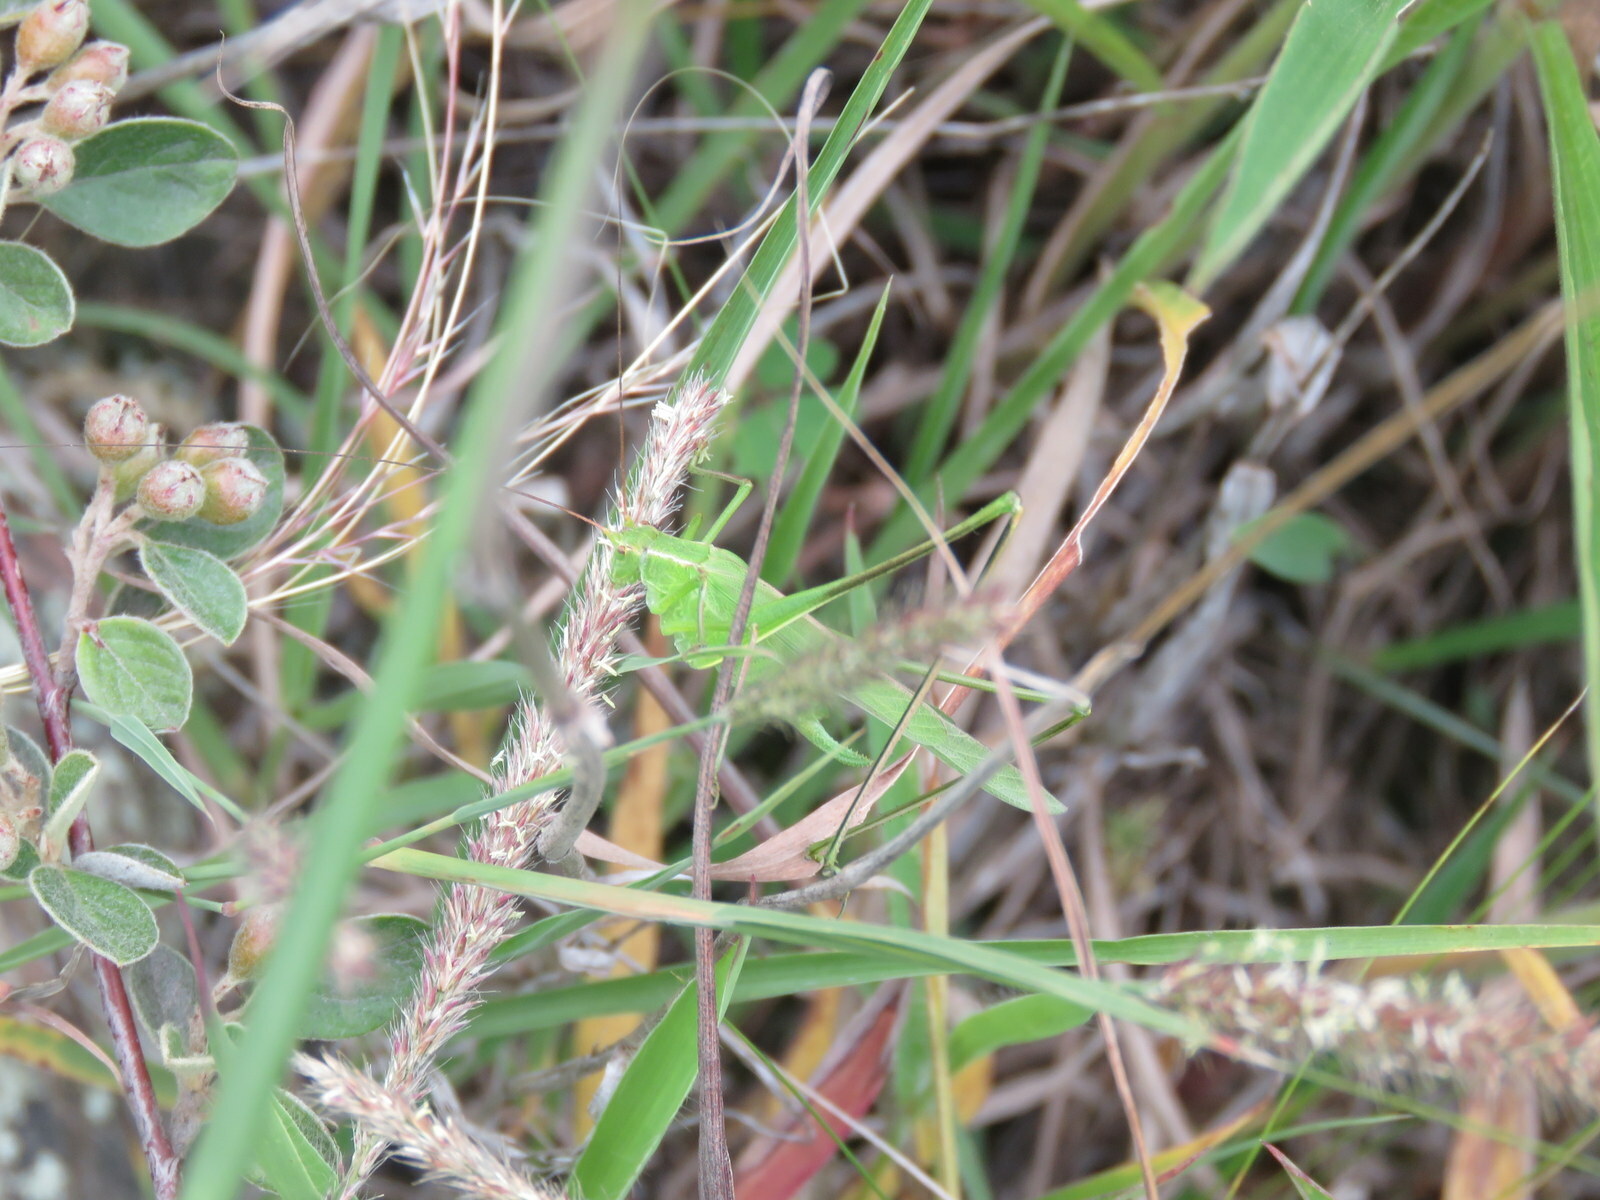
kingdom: Animalia
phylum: Arthropoda
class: Insecta
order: Orthoptera
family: Tettigoniidae
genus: Burgilis
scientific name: Burgilis curta
